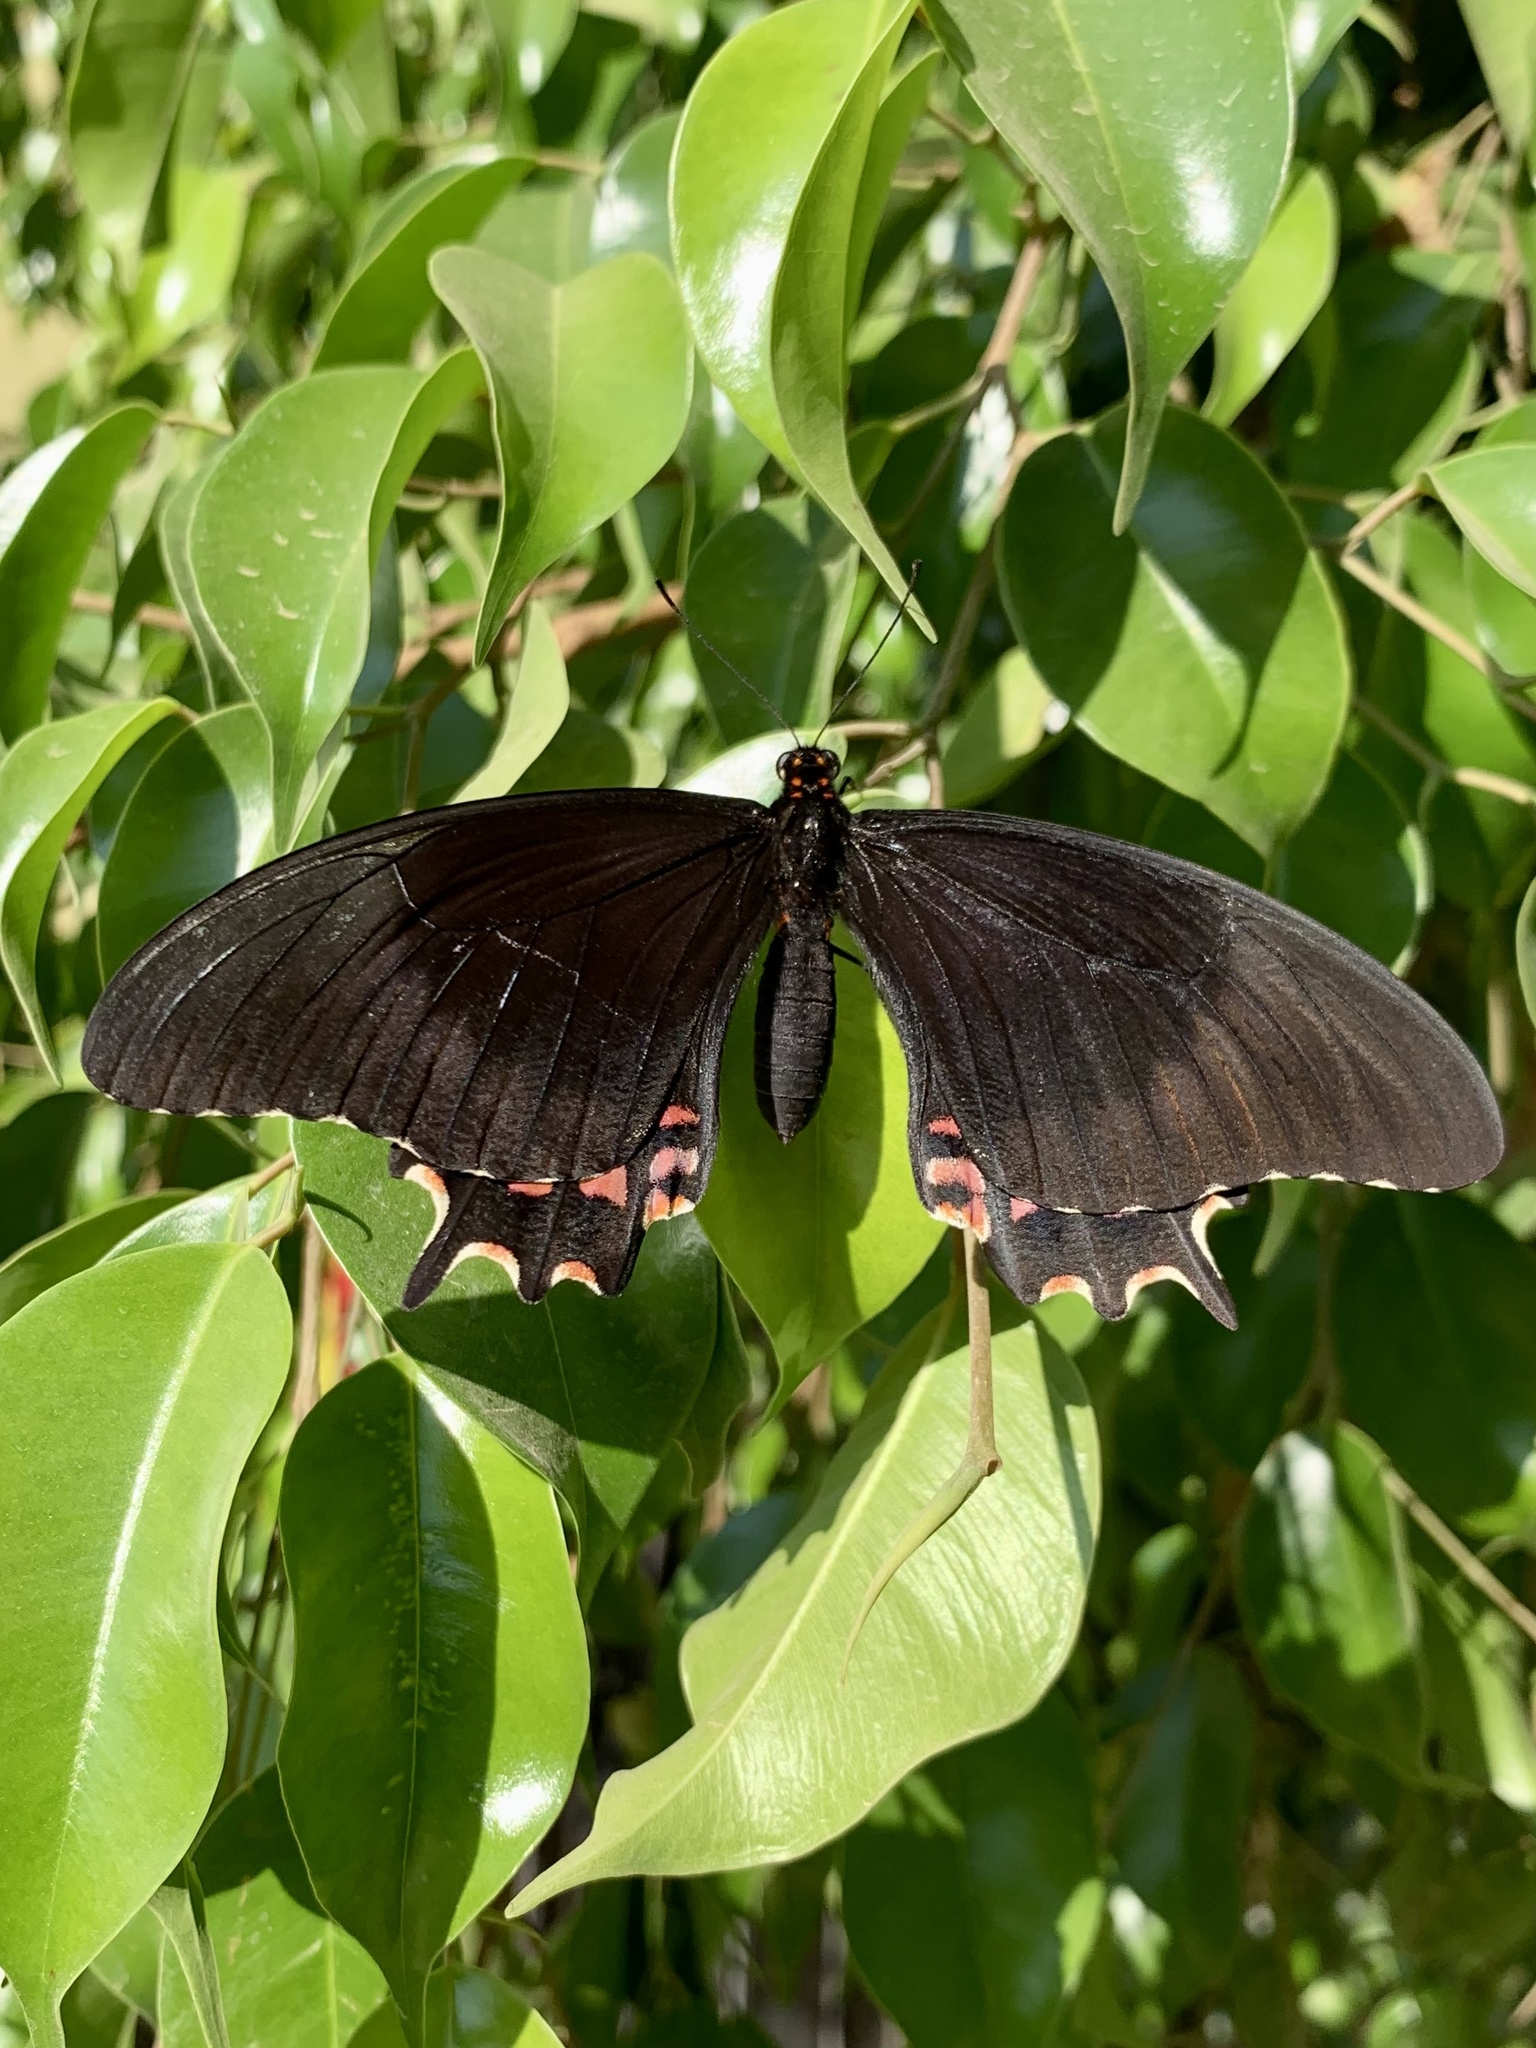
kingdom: Animalia
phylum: Arthropoda
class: Insecta
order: Lepidoptera
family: Papilionidae
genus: Heraclides
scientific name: Heraclides rogeri
